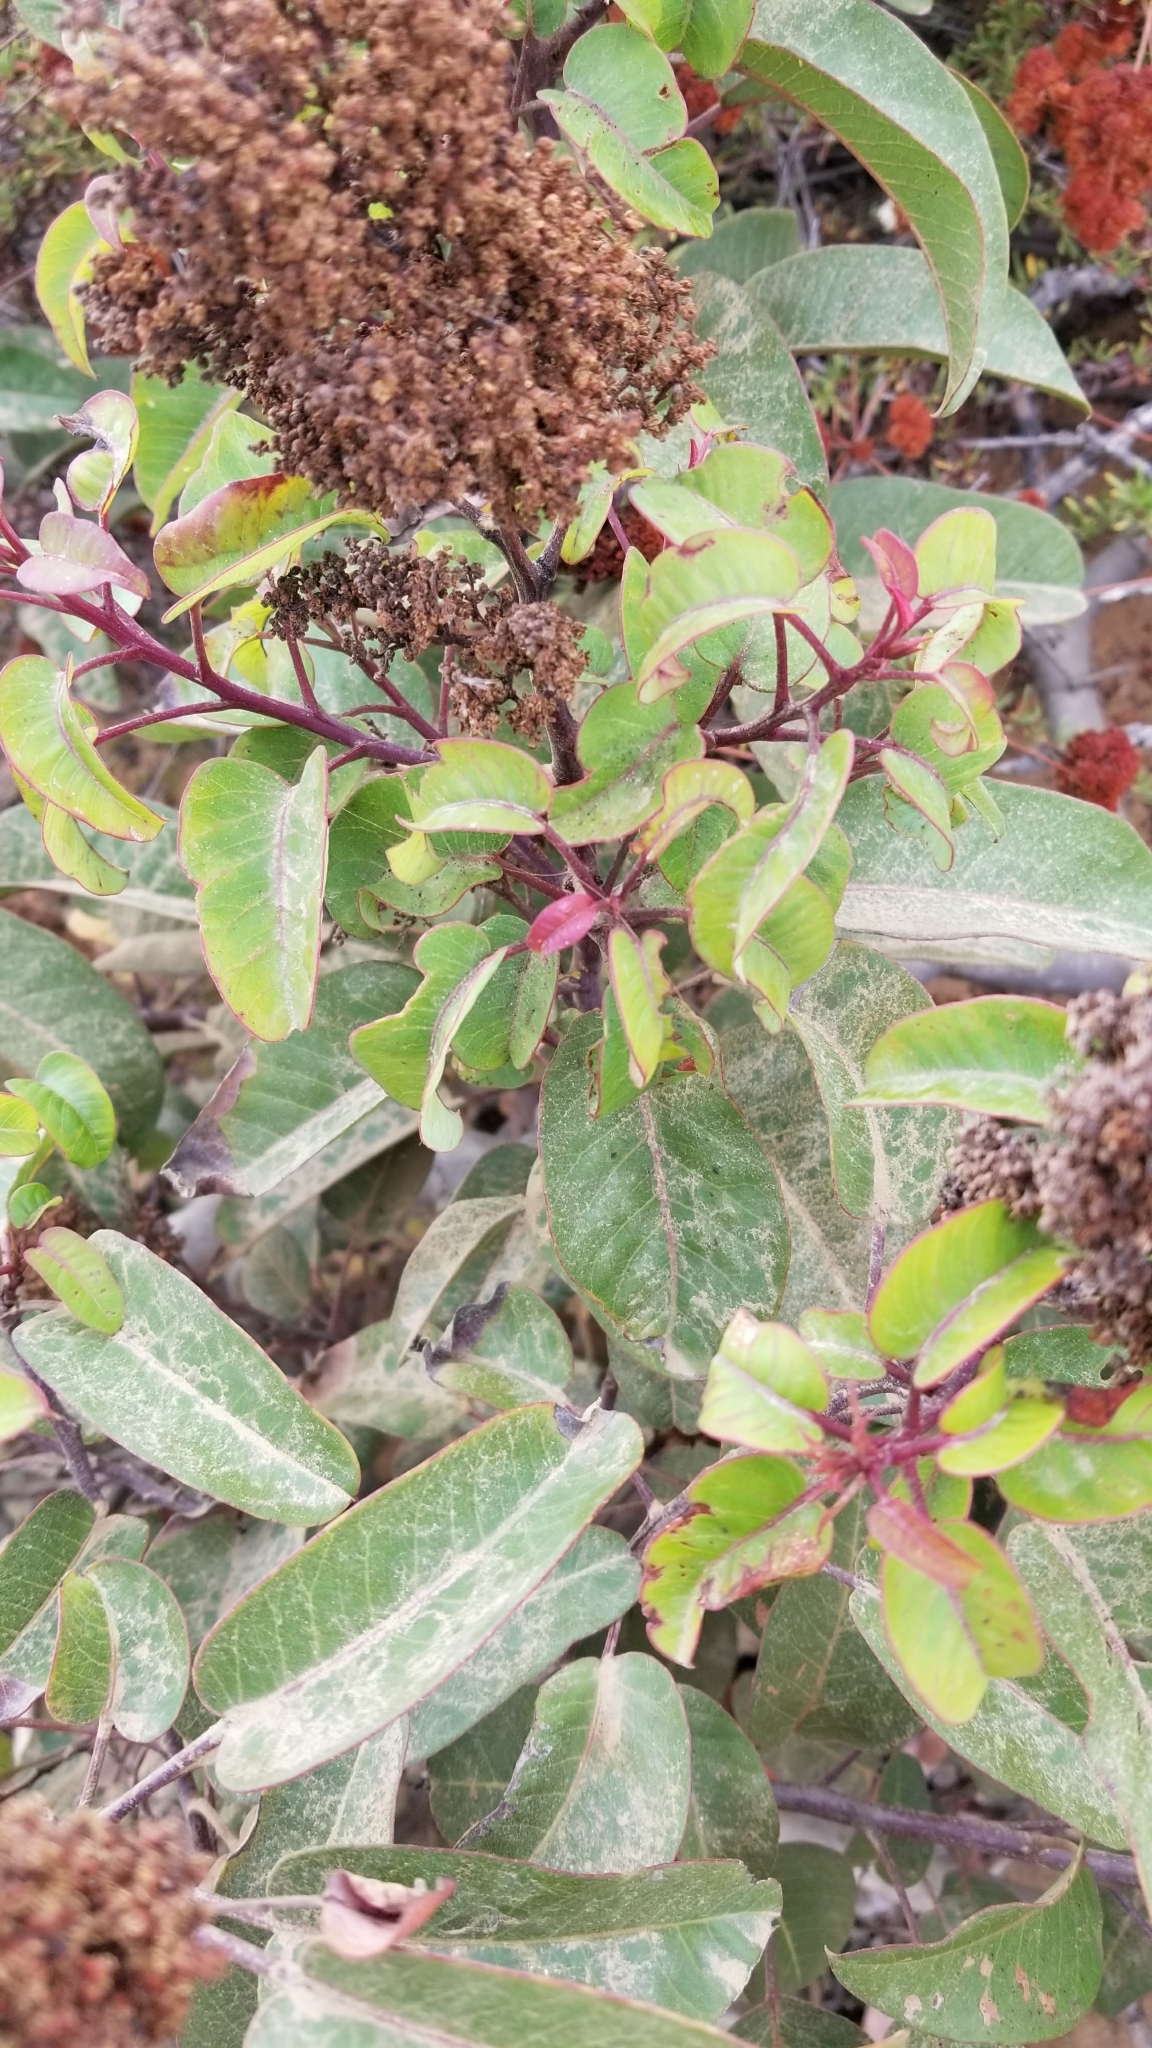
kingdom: Plantae
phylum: Tracheophyta
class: Magnoliopsida
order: Sapindales
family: Anacardiaceae
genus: Malosma
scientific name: Malosma laurina
